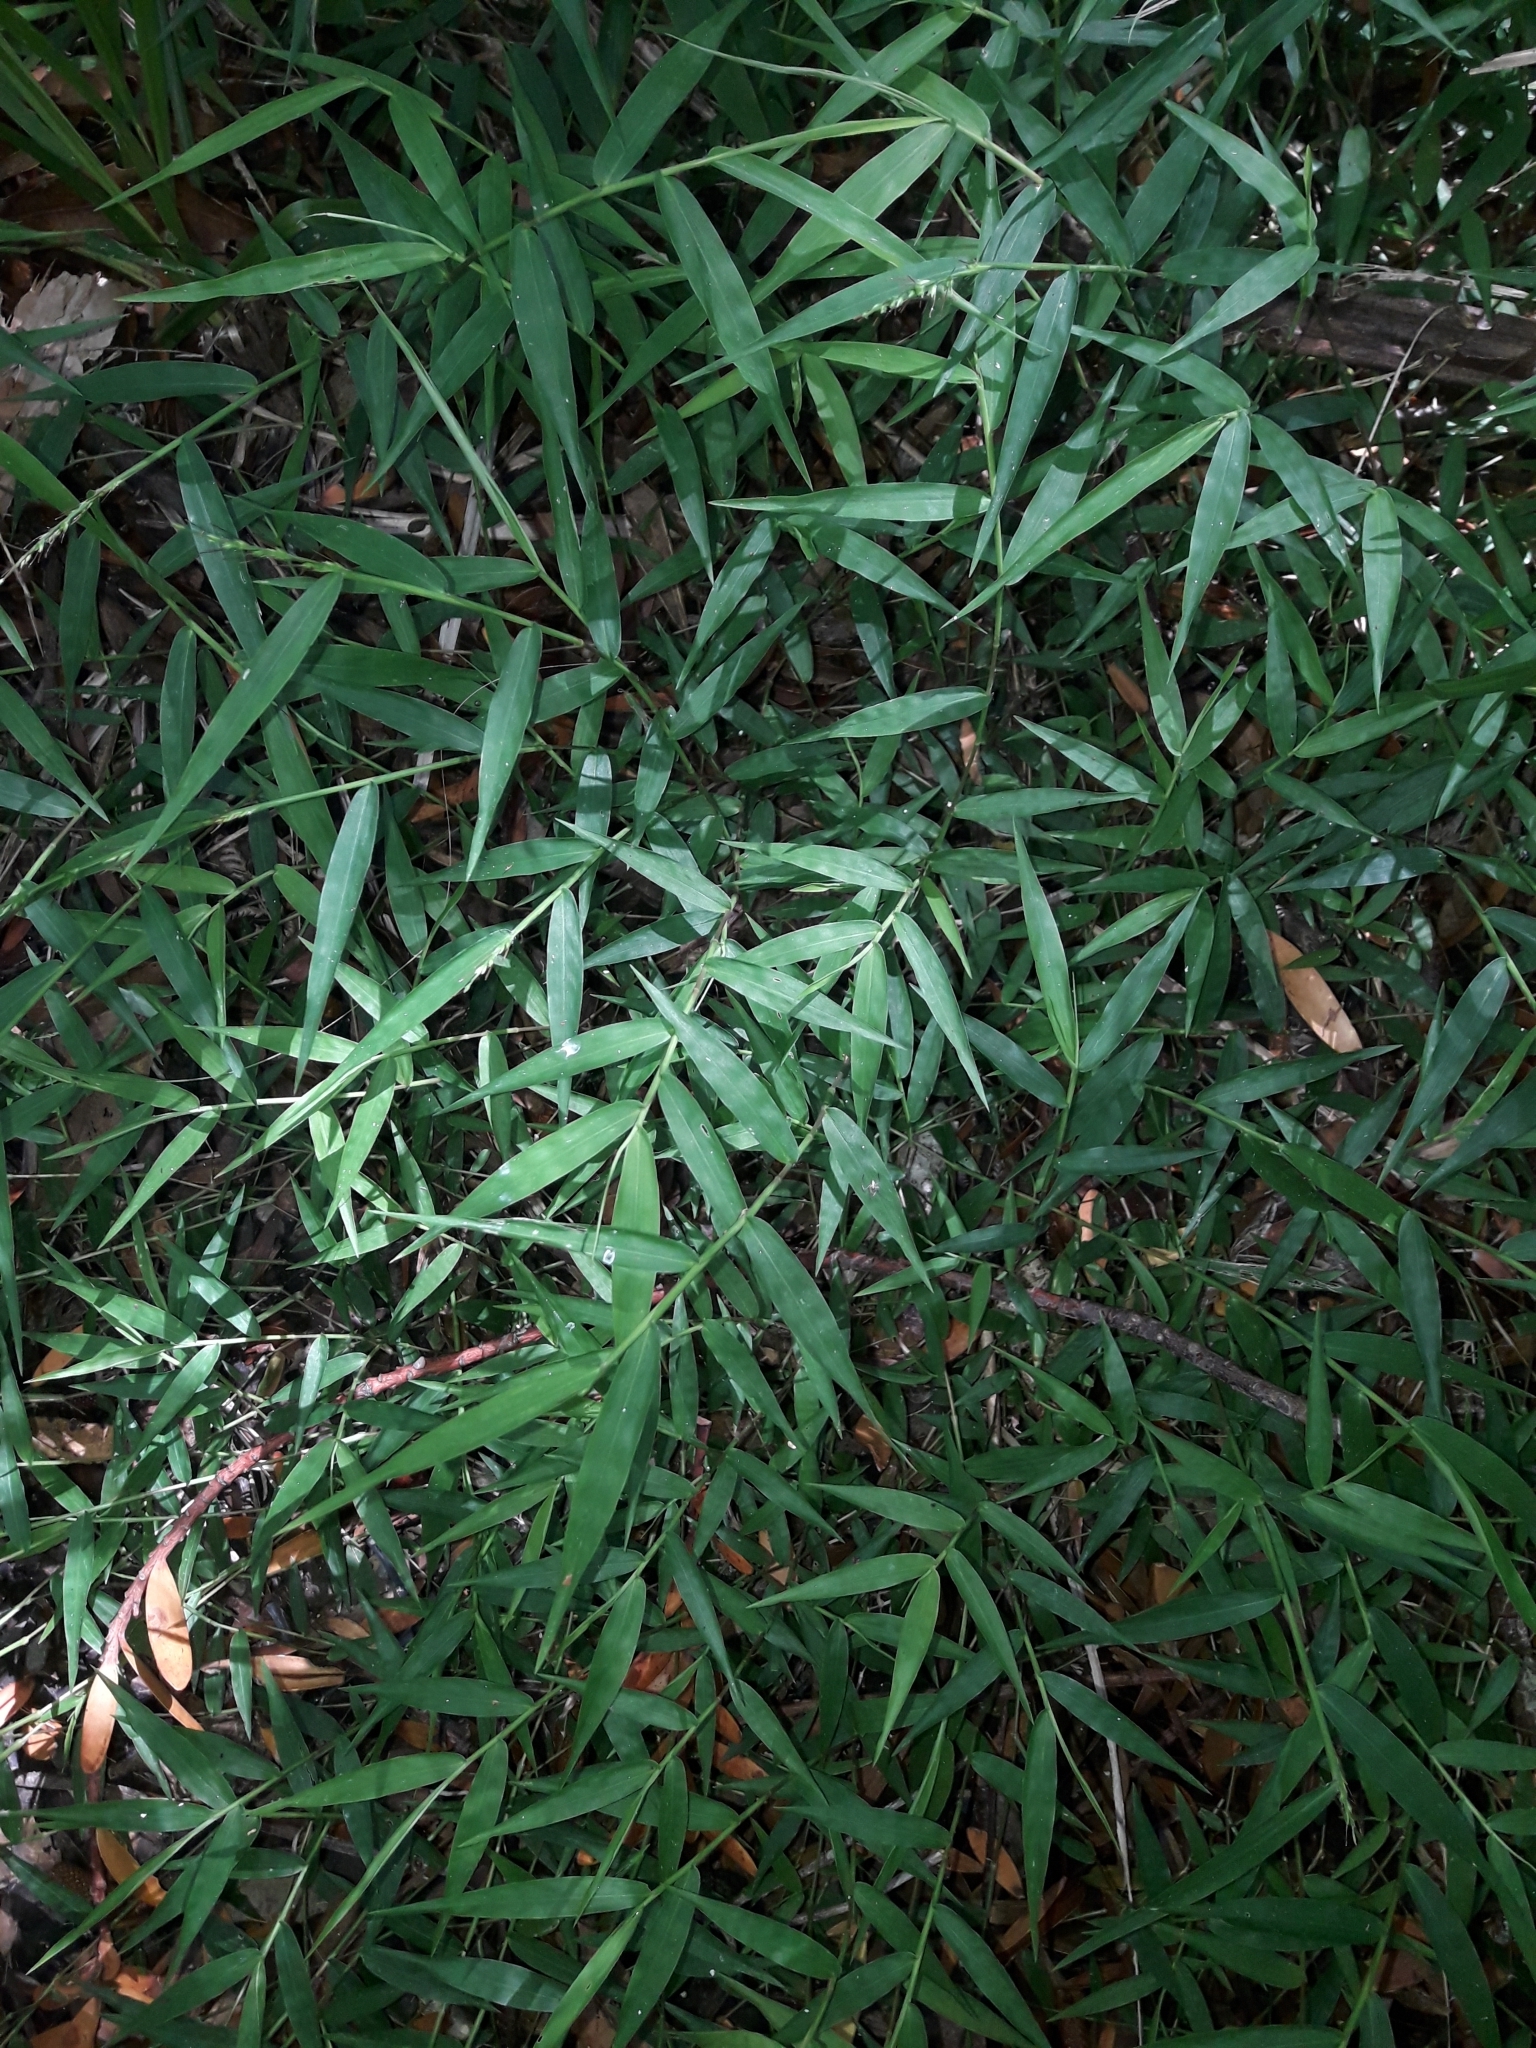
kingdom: Plantae
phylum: Tracheophyta
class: Liliopsida
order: Poales
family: Poaceae
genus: Oplismenus
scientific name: Oplismenus hirtellus
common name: Basketgrass
